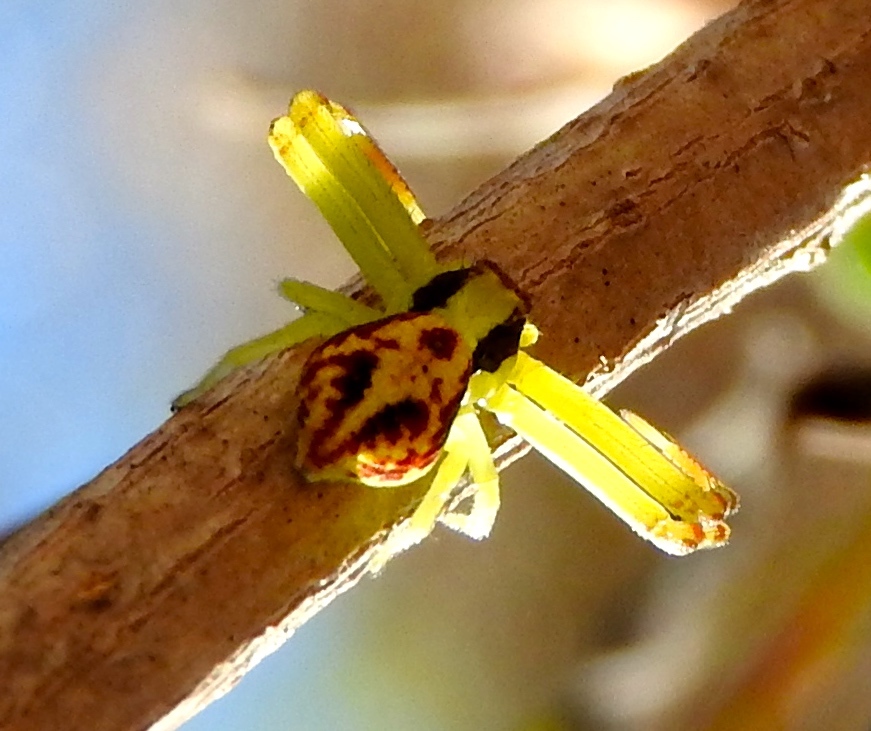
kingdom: Animalia
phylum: Arthropoda
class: Arachnida
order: Araneae
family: Thomisidae
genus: Mecaphesa
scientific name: Mecaphesa
